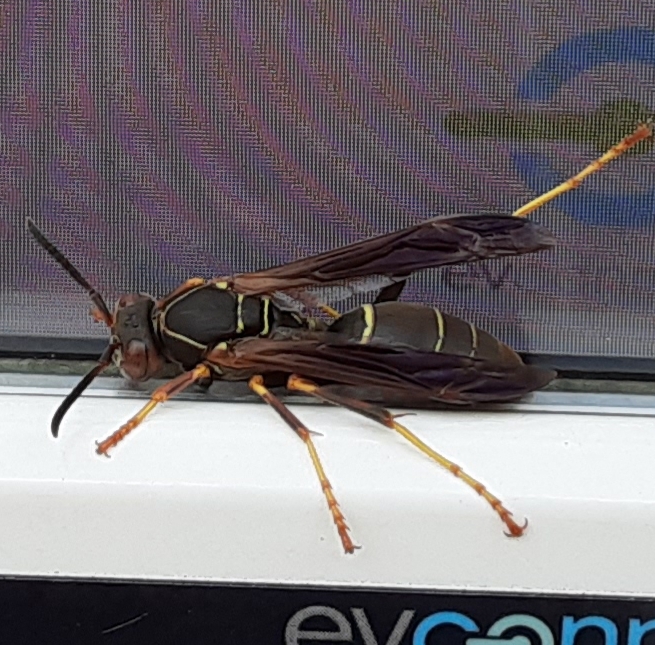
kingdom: Animalia
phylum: Arthropoda
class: Insecta
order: Hymenoptera
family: Eumenidae
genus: Polistes
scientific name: Polistes fuscatus
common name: Dark paper wasp
